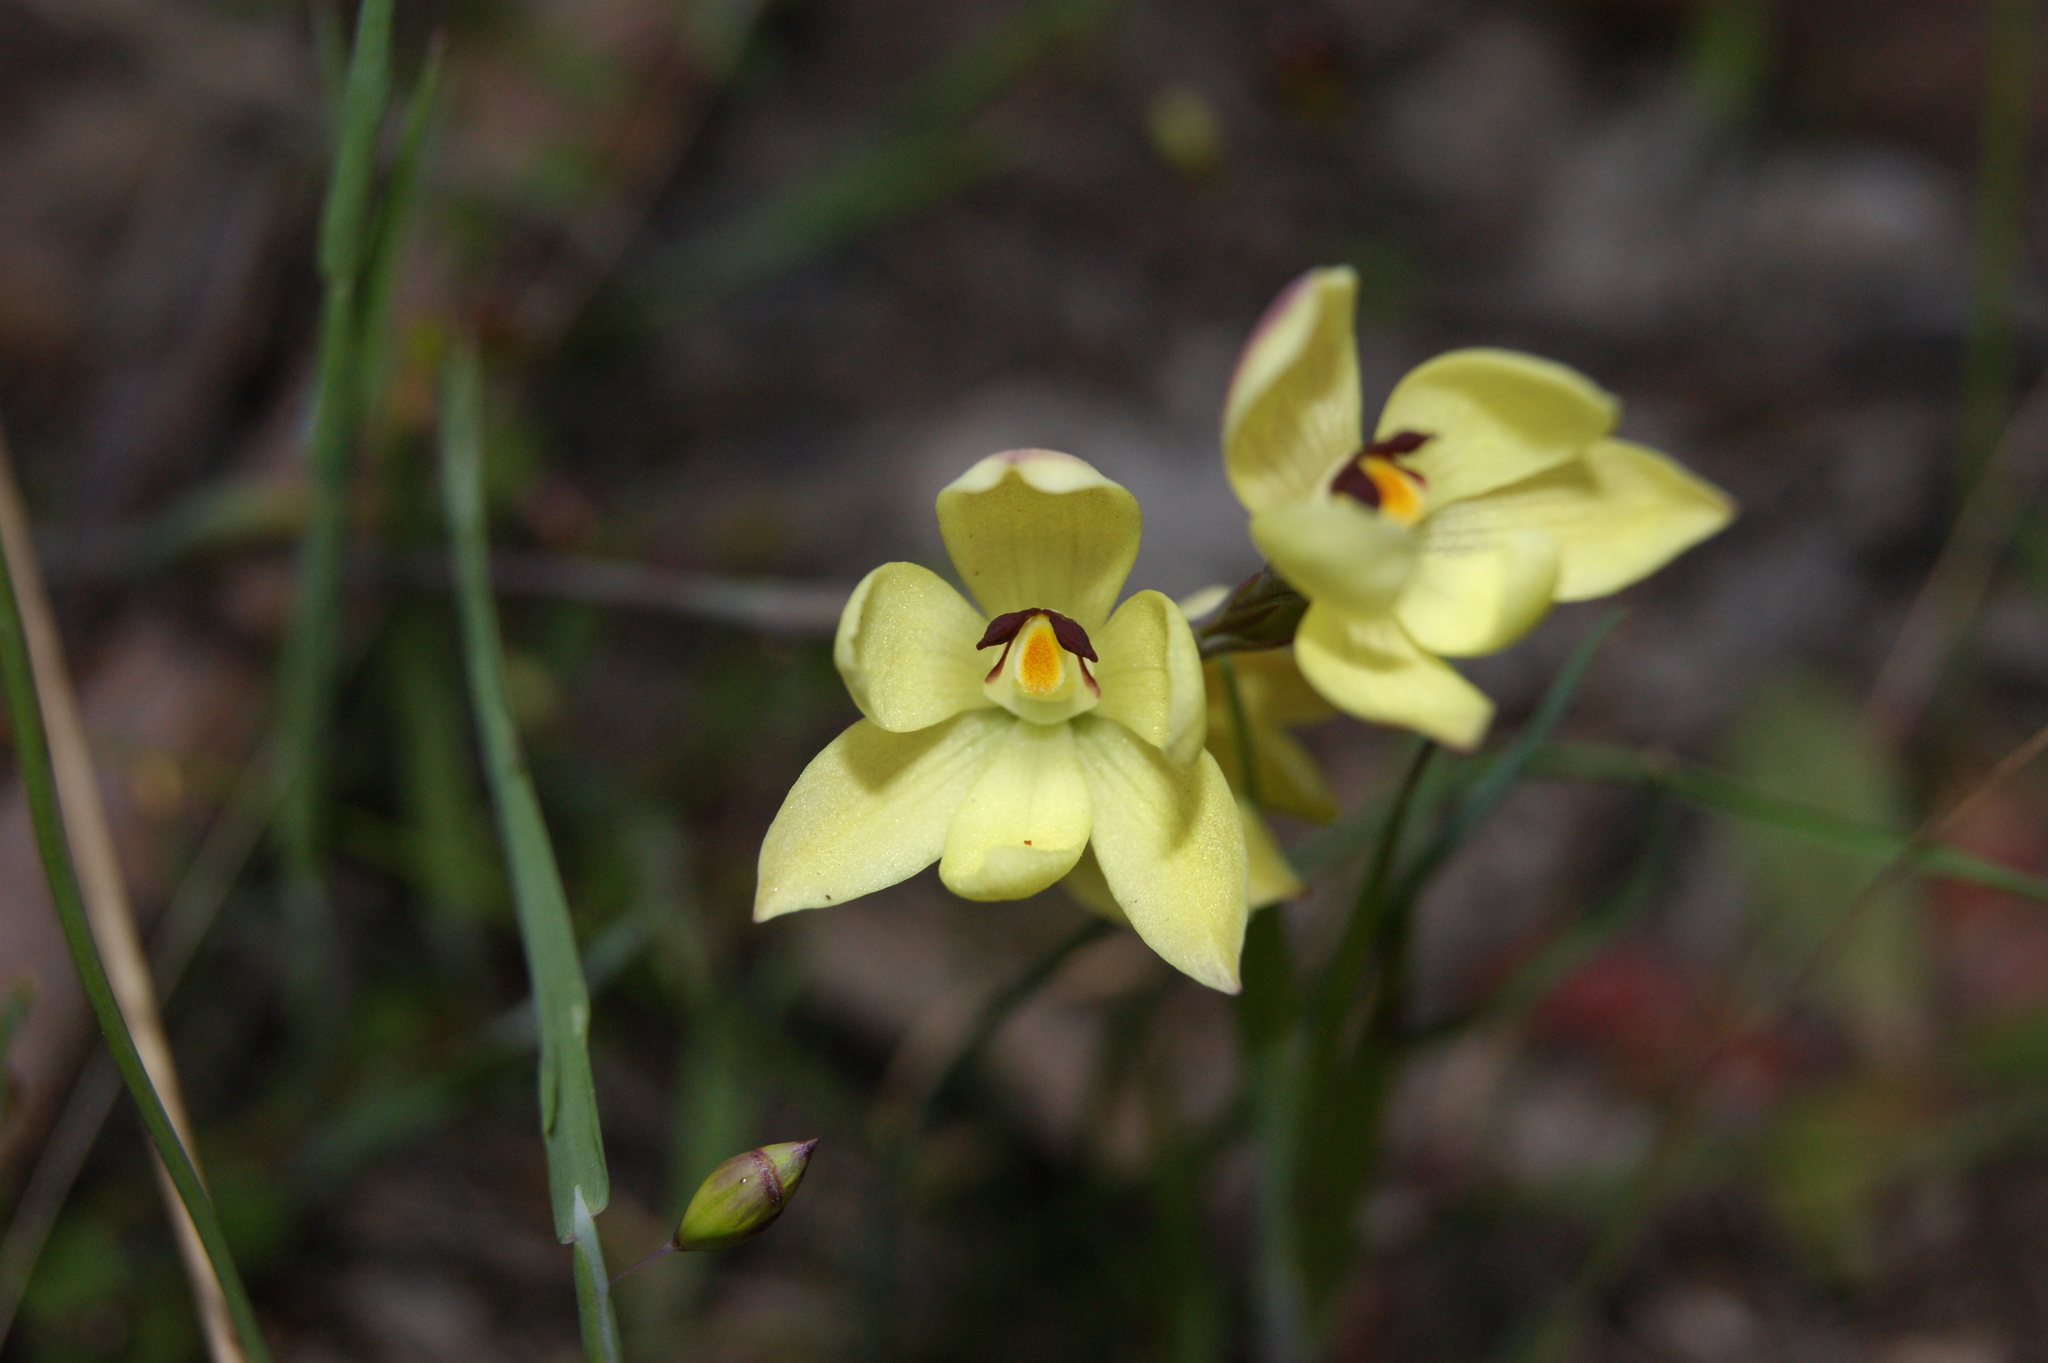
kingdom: Plantae
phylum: Tracheophyta
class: Liliopsida
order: Asparagales
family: Orchidaceae
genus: Thelymitra
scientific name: Thelymitra antennifera
